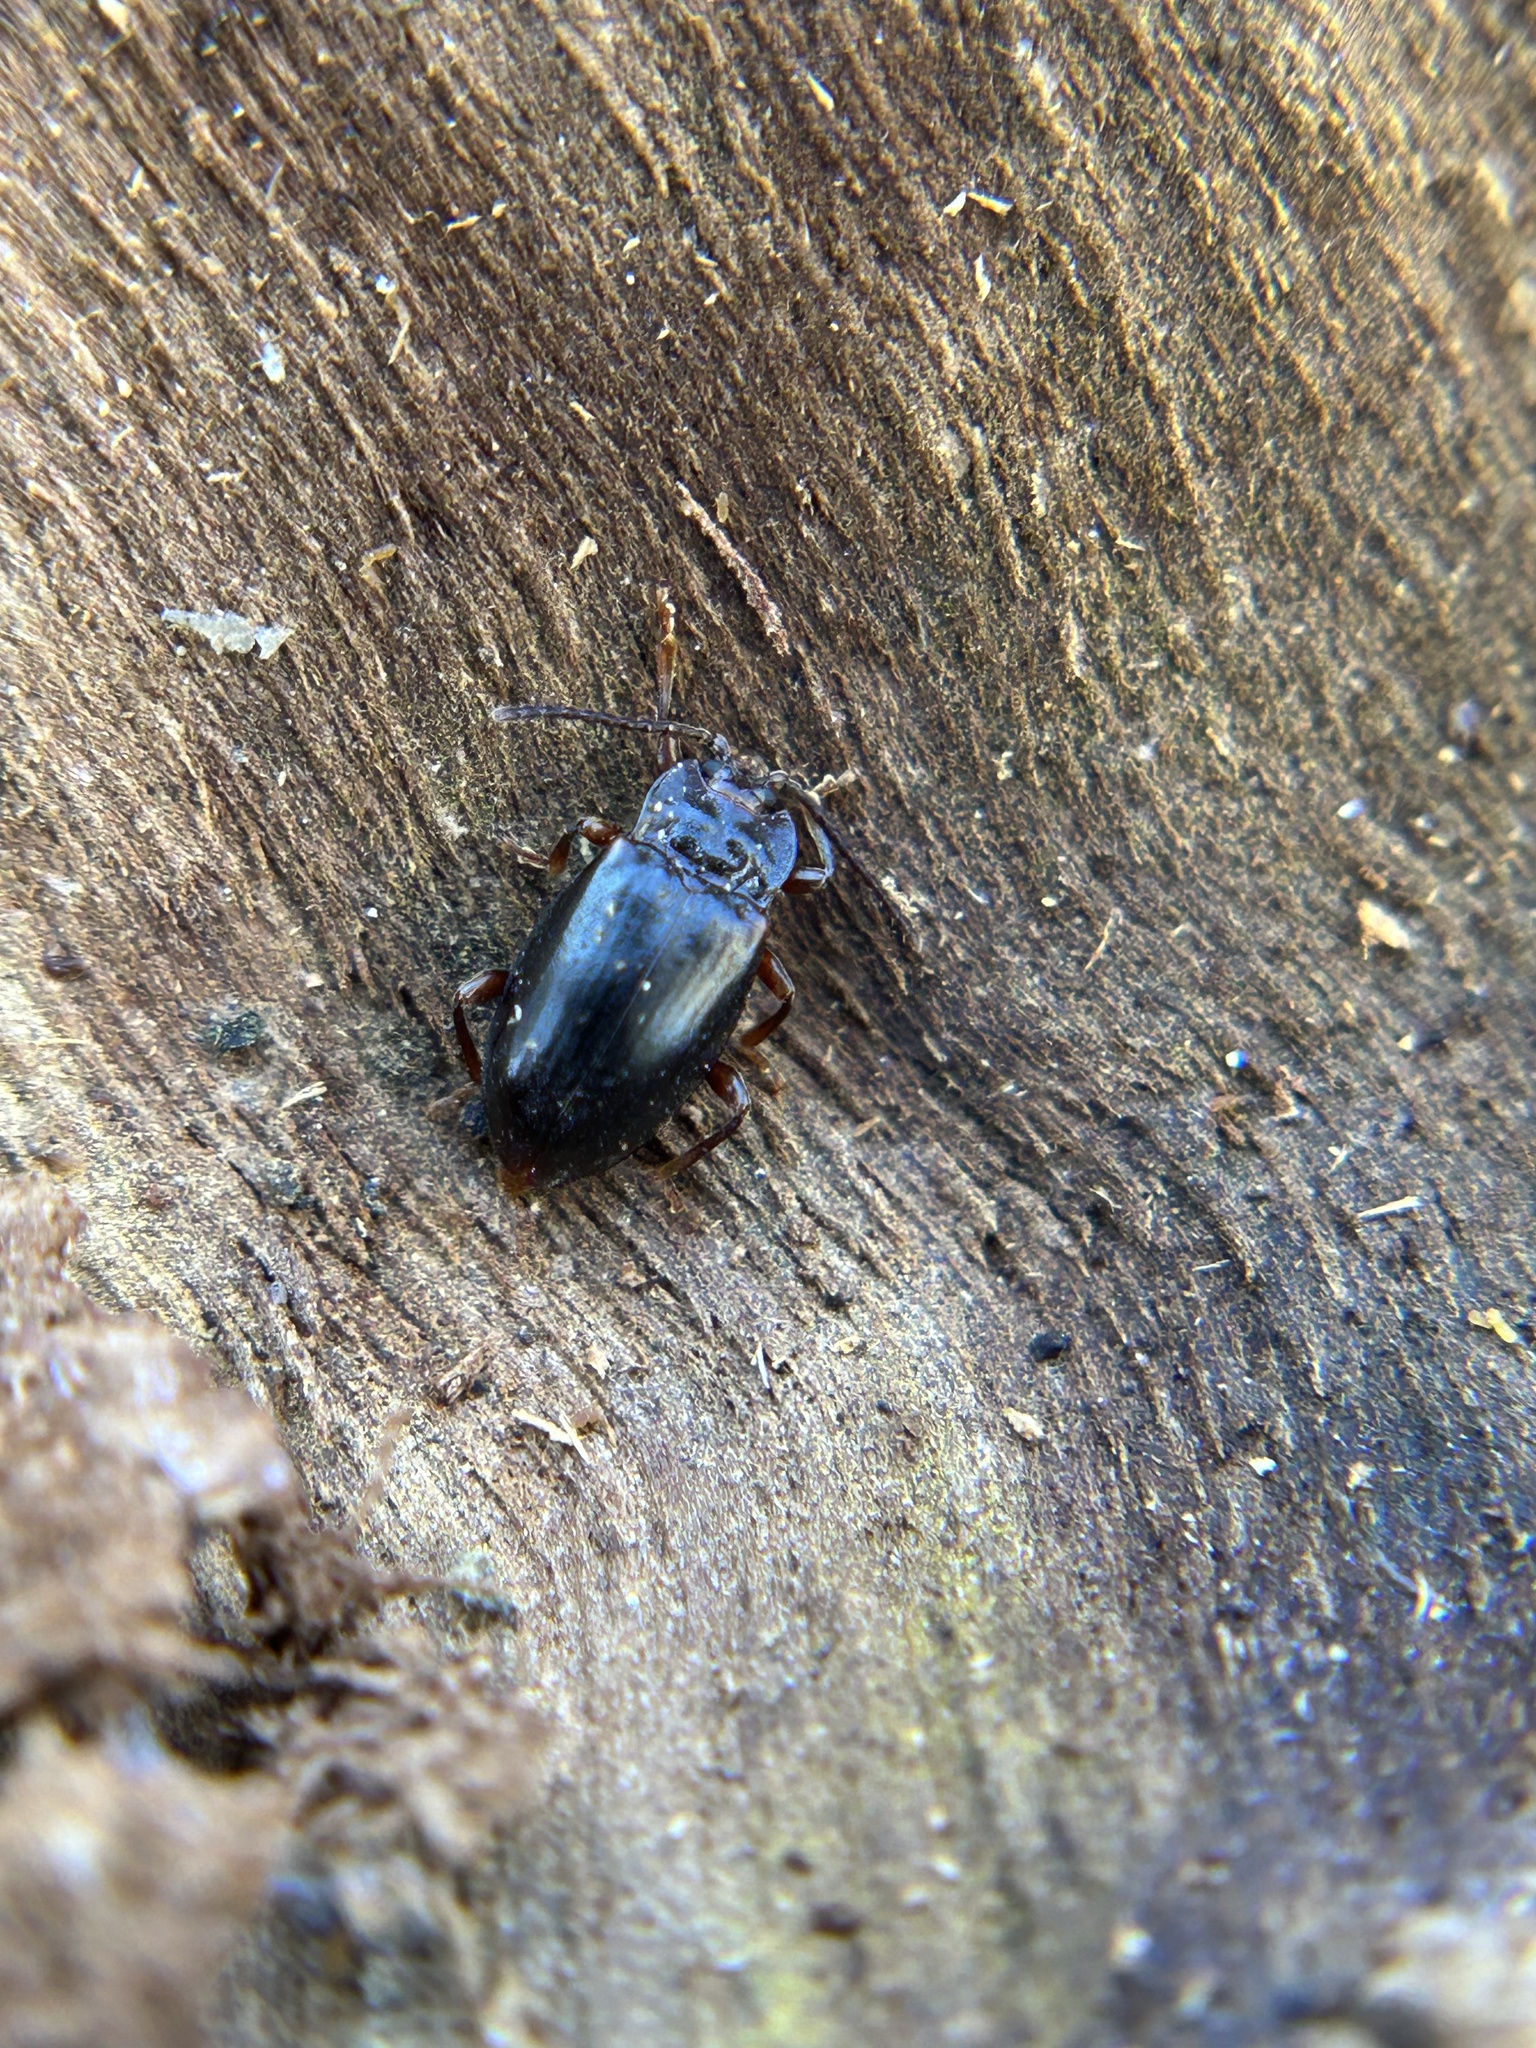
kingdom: Animalia
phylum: Arthropoda
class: Insecta
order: Coleoptera
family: Endomychidae
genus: Aphorista
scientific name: Aphorista morosa
